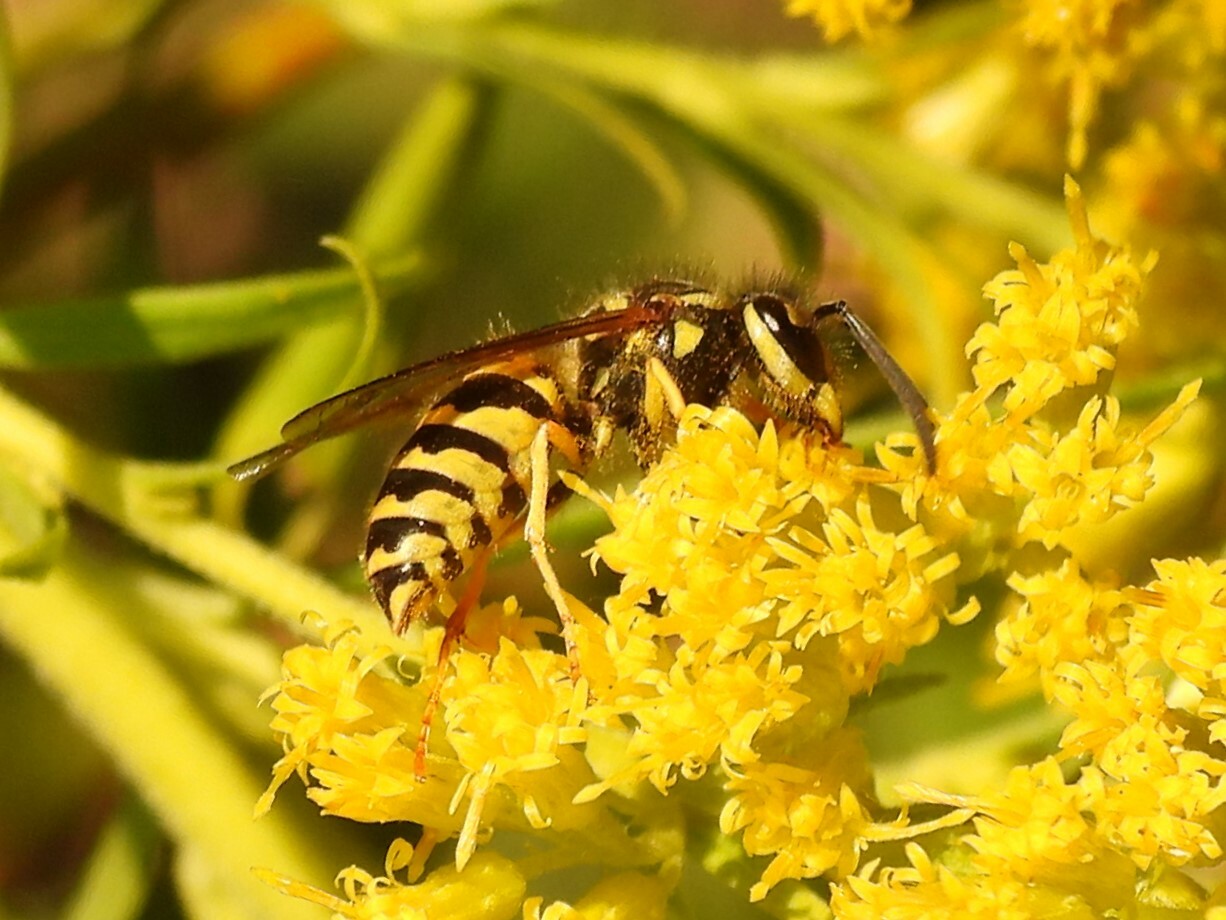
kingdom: Animalia
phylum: Arthropoda
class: Insecta
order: Hymenoptera
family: Vespidae
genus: Vespula
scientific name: Vespula maculifrons
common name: Eastern yellowjacket
